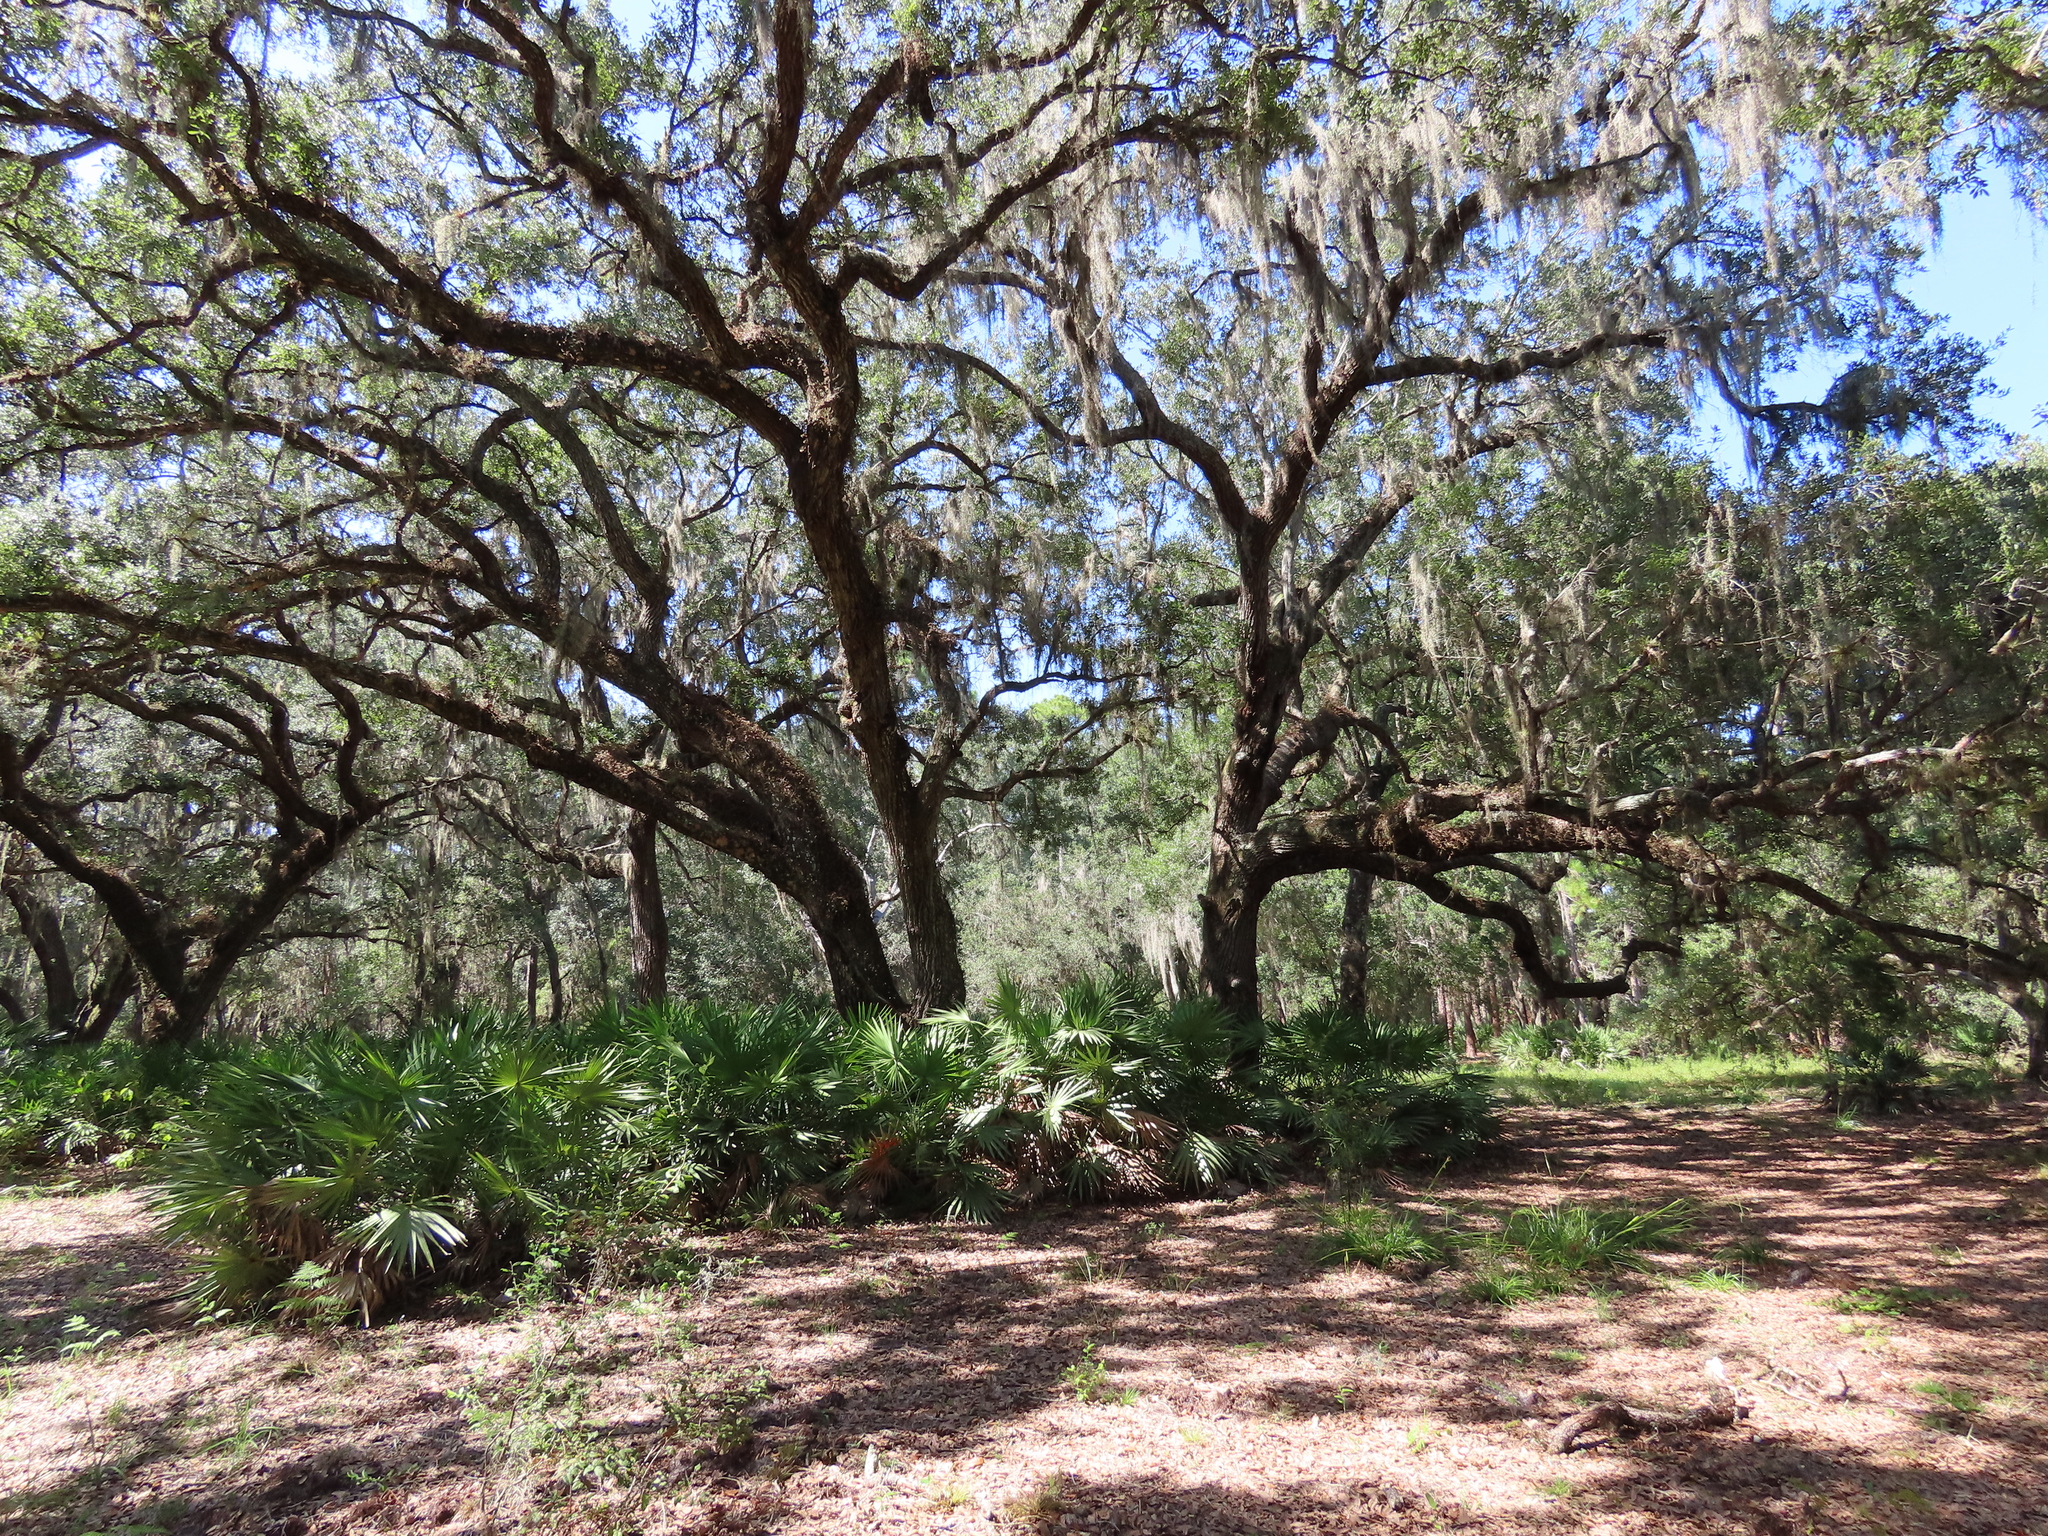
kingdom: Plantae
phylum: Tracheophyta
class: Magnoliopsida
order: Fagales
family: Fagaceae
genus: Quercus
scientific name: Quercus virginiana
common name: Southern live oak
